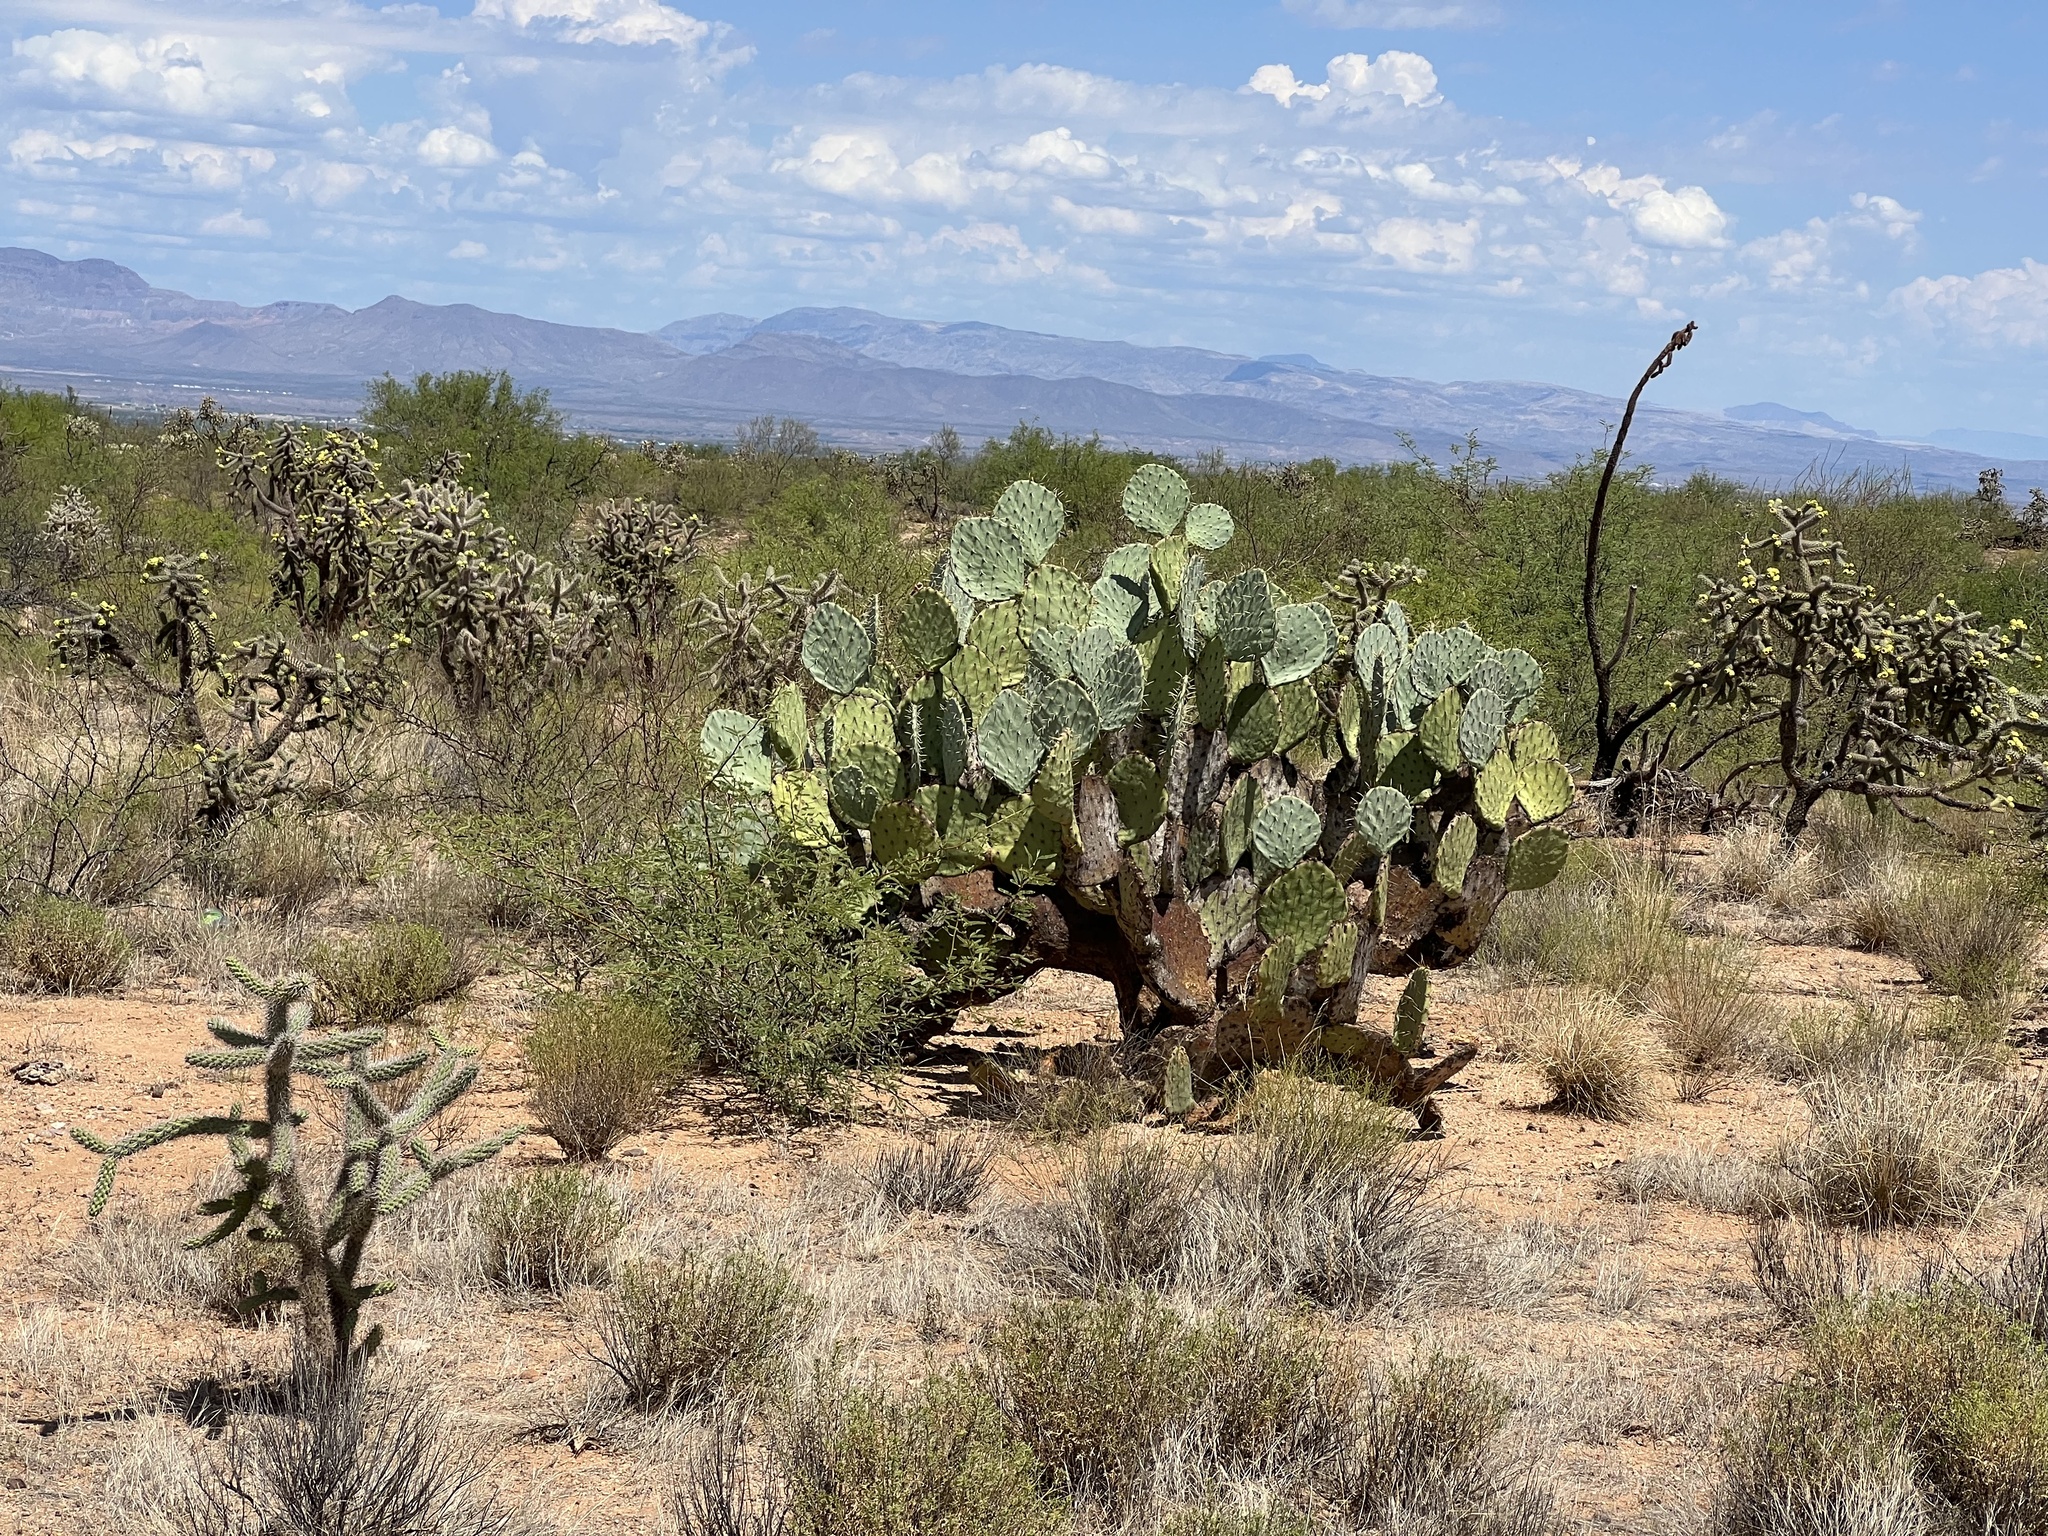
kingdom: Plantae
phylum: Tracheophyta
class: Magnoliopsida
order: Caryophyllales
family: Cactaceae
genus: Opuntia
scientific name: Opuntia engelmannii
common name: Cactus-apple
